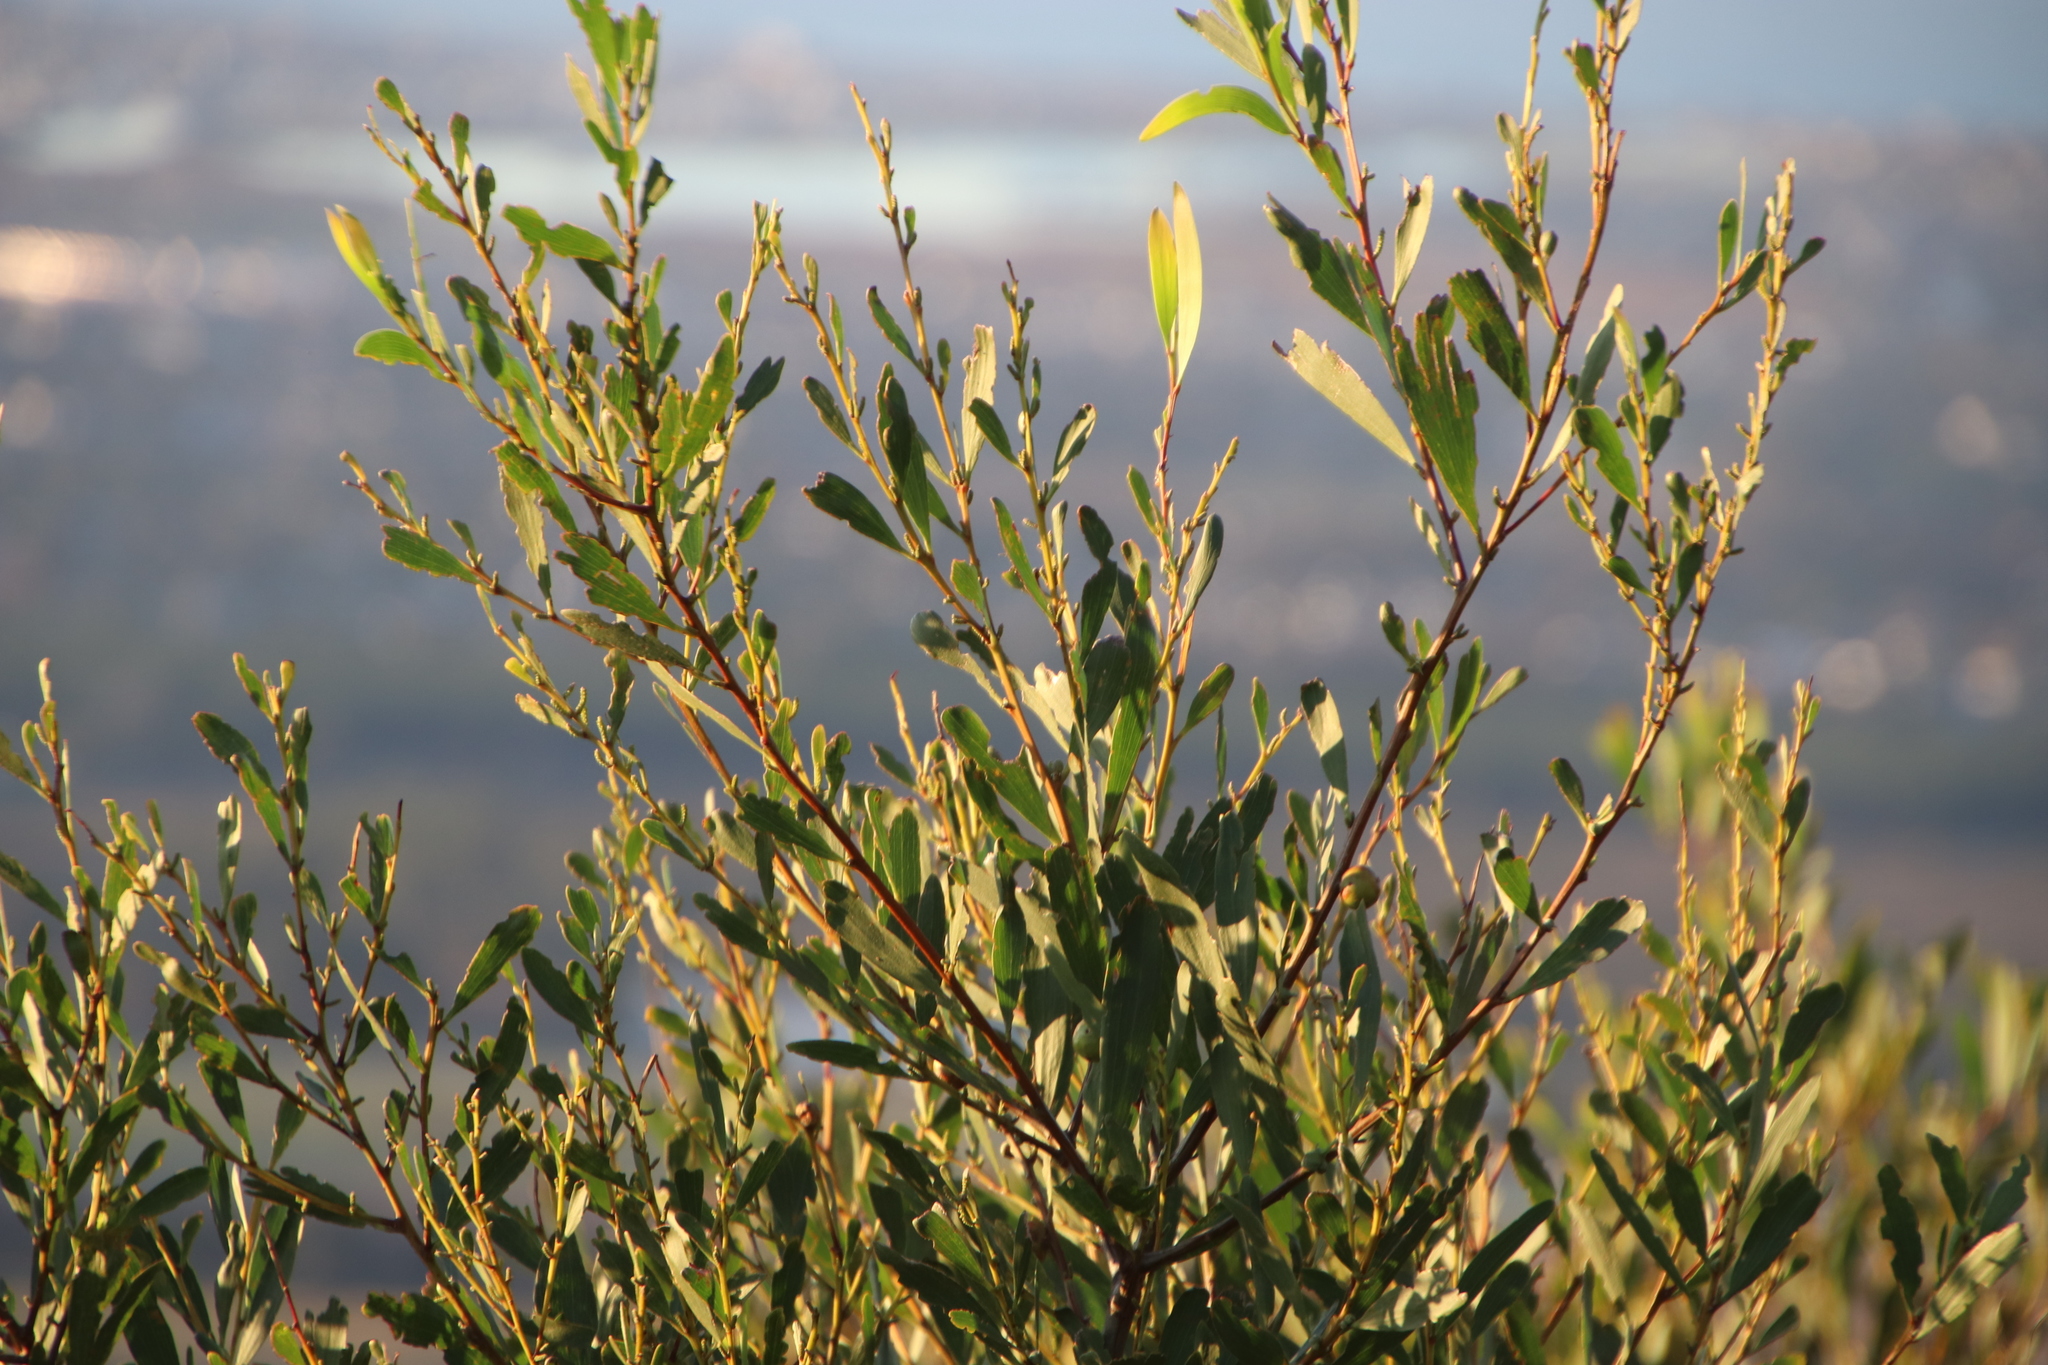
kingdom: Plantae
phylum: Tracheophyta
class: Magnoliopsida
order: Fabales
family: Fabaceae
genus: Acacia
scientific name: Acacia longifolia
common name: Sydney golden wattle
